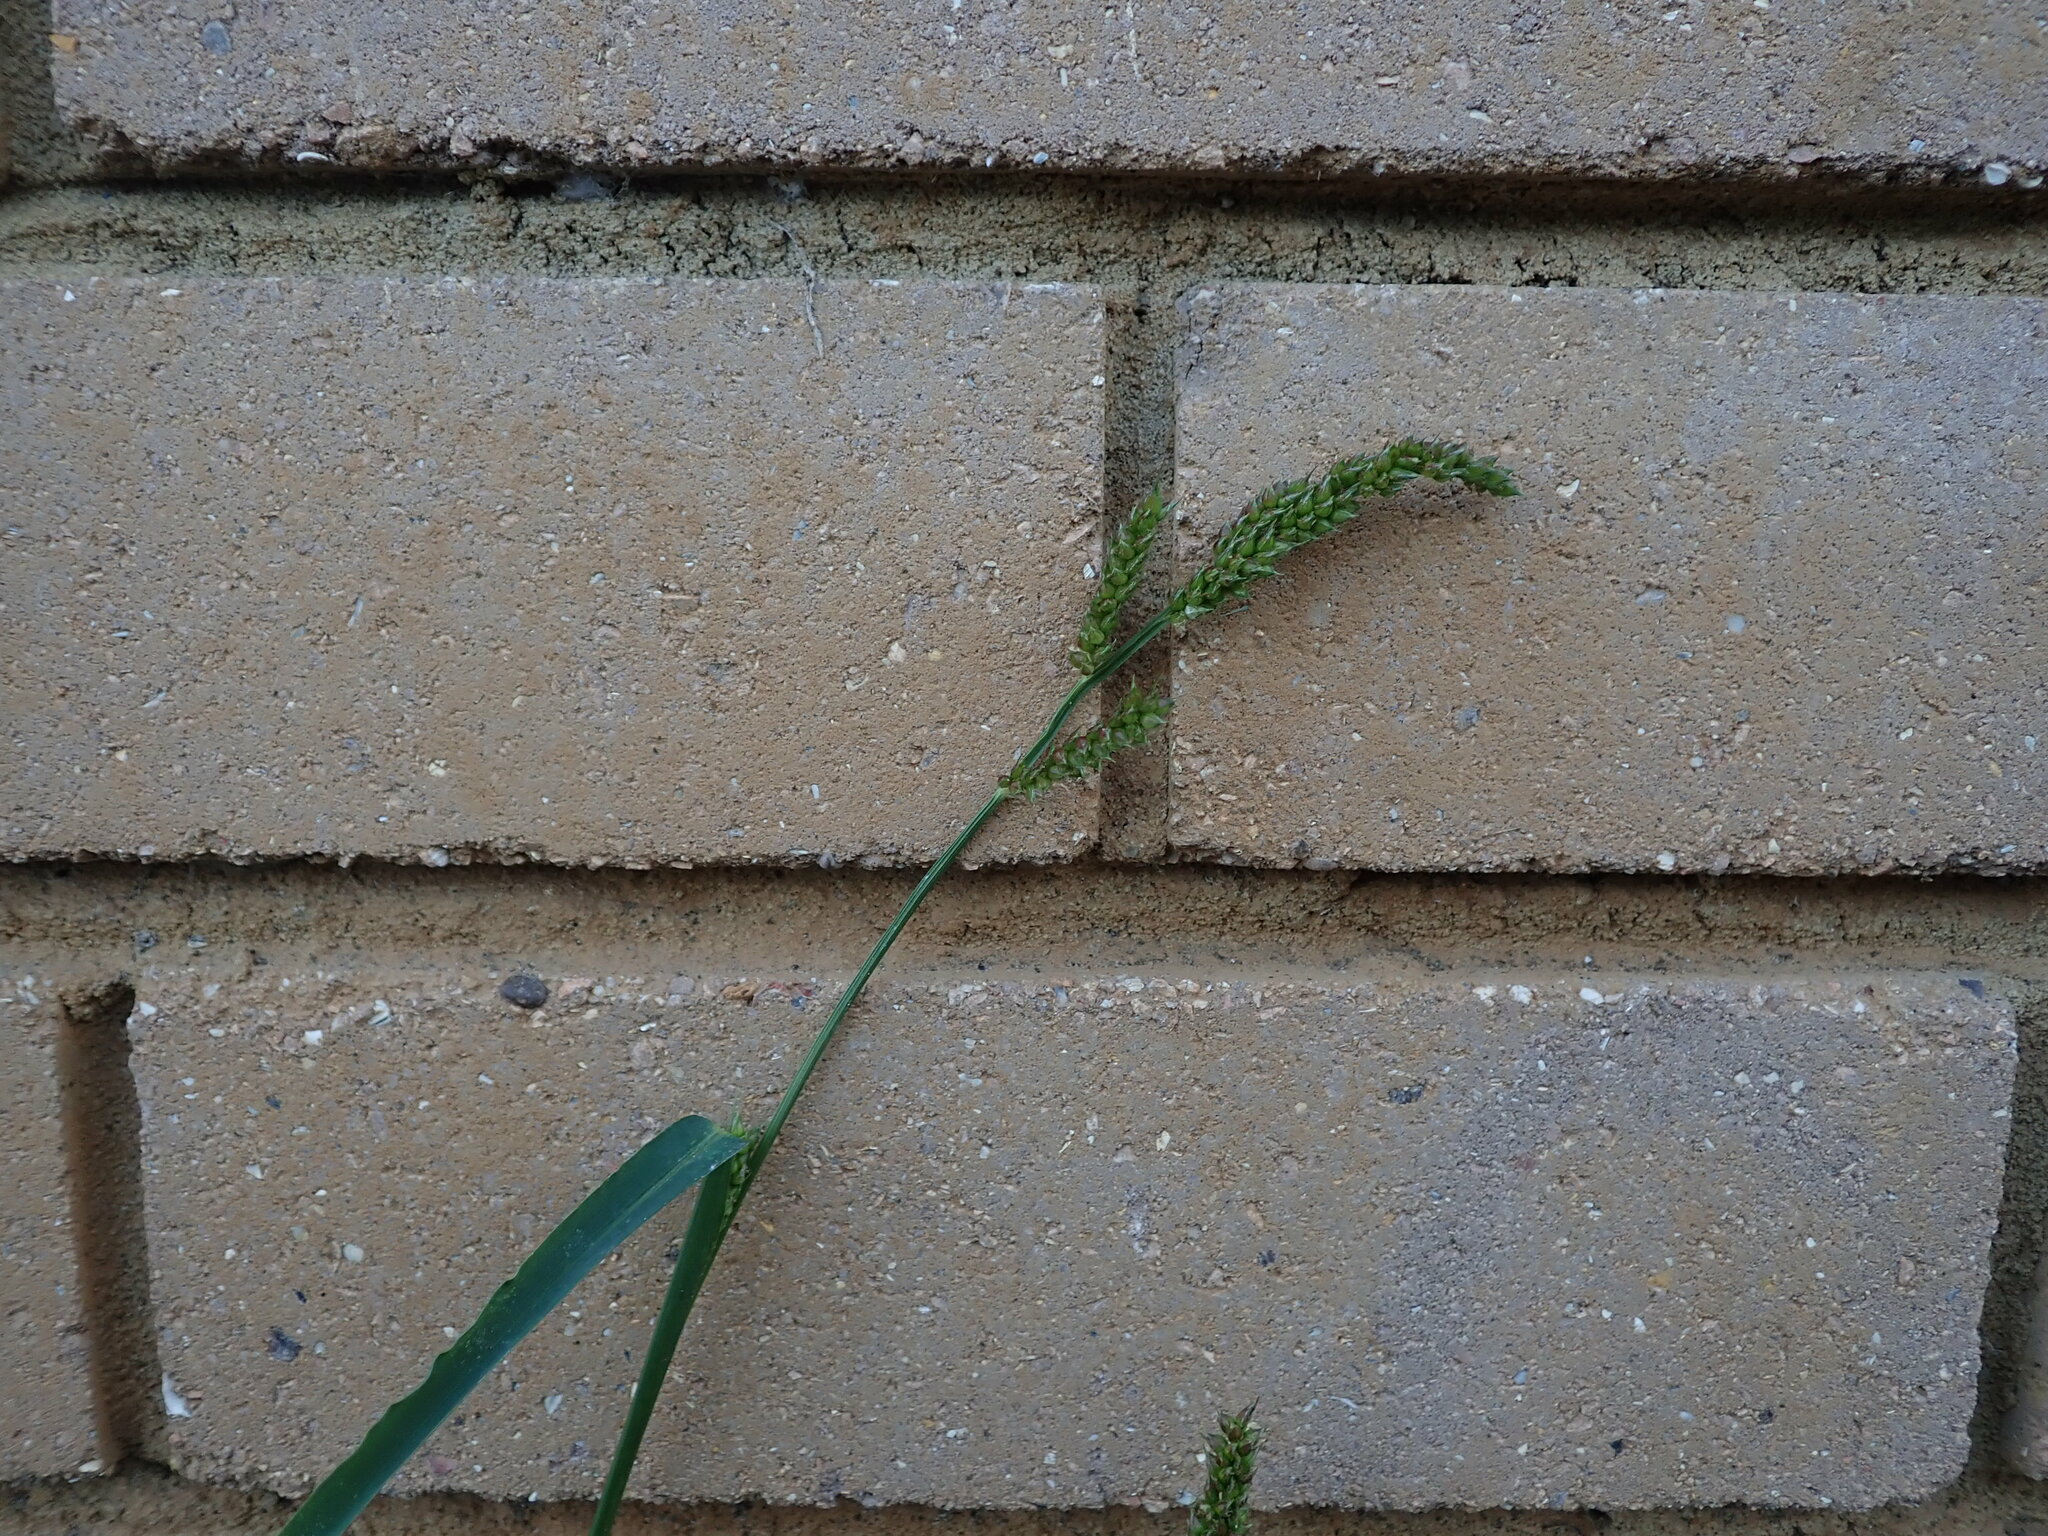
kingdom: Plantae
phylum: Tracheophyta
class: Liliopsida
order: Poales
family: Poaceae
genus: Echinochloa
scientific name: Echinochloa crus-galli
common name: Cockspur
